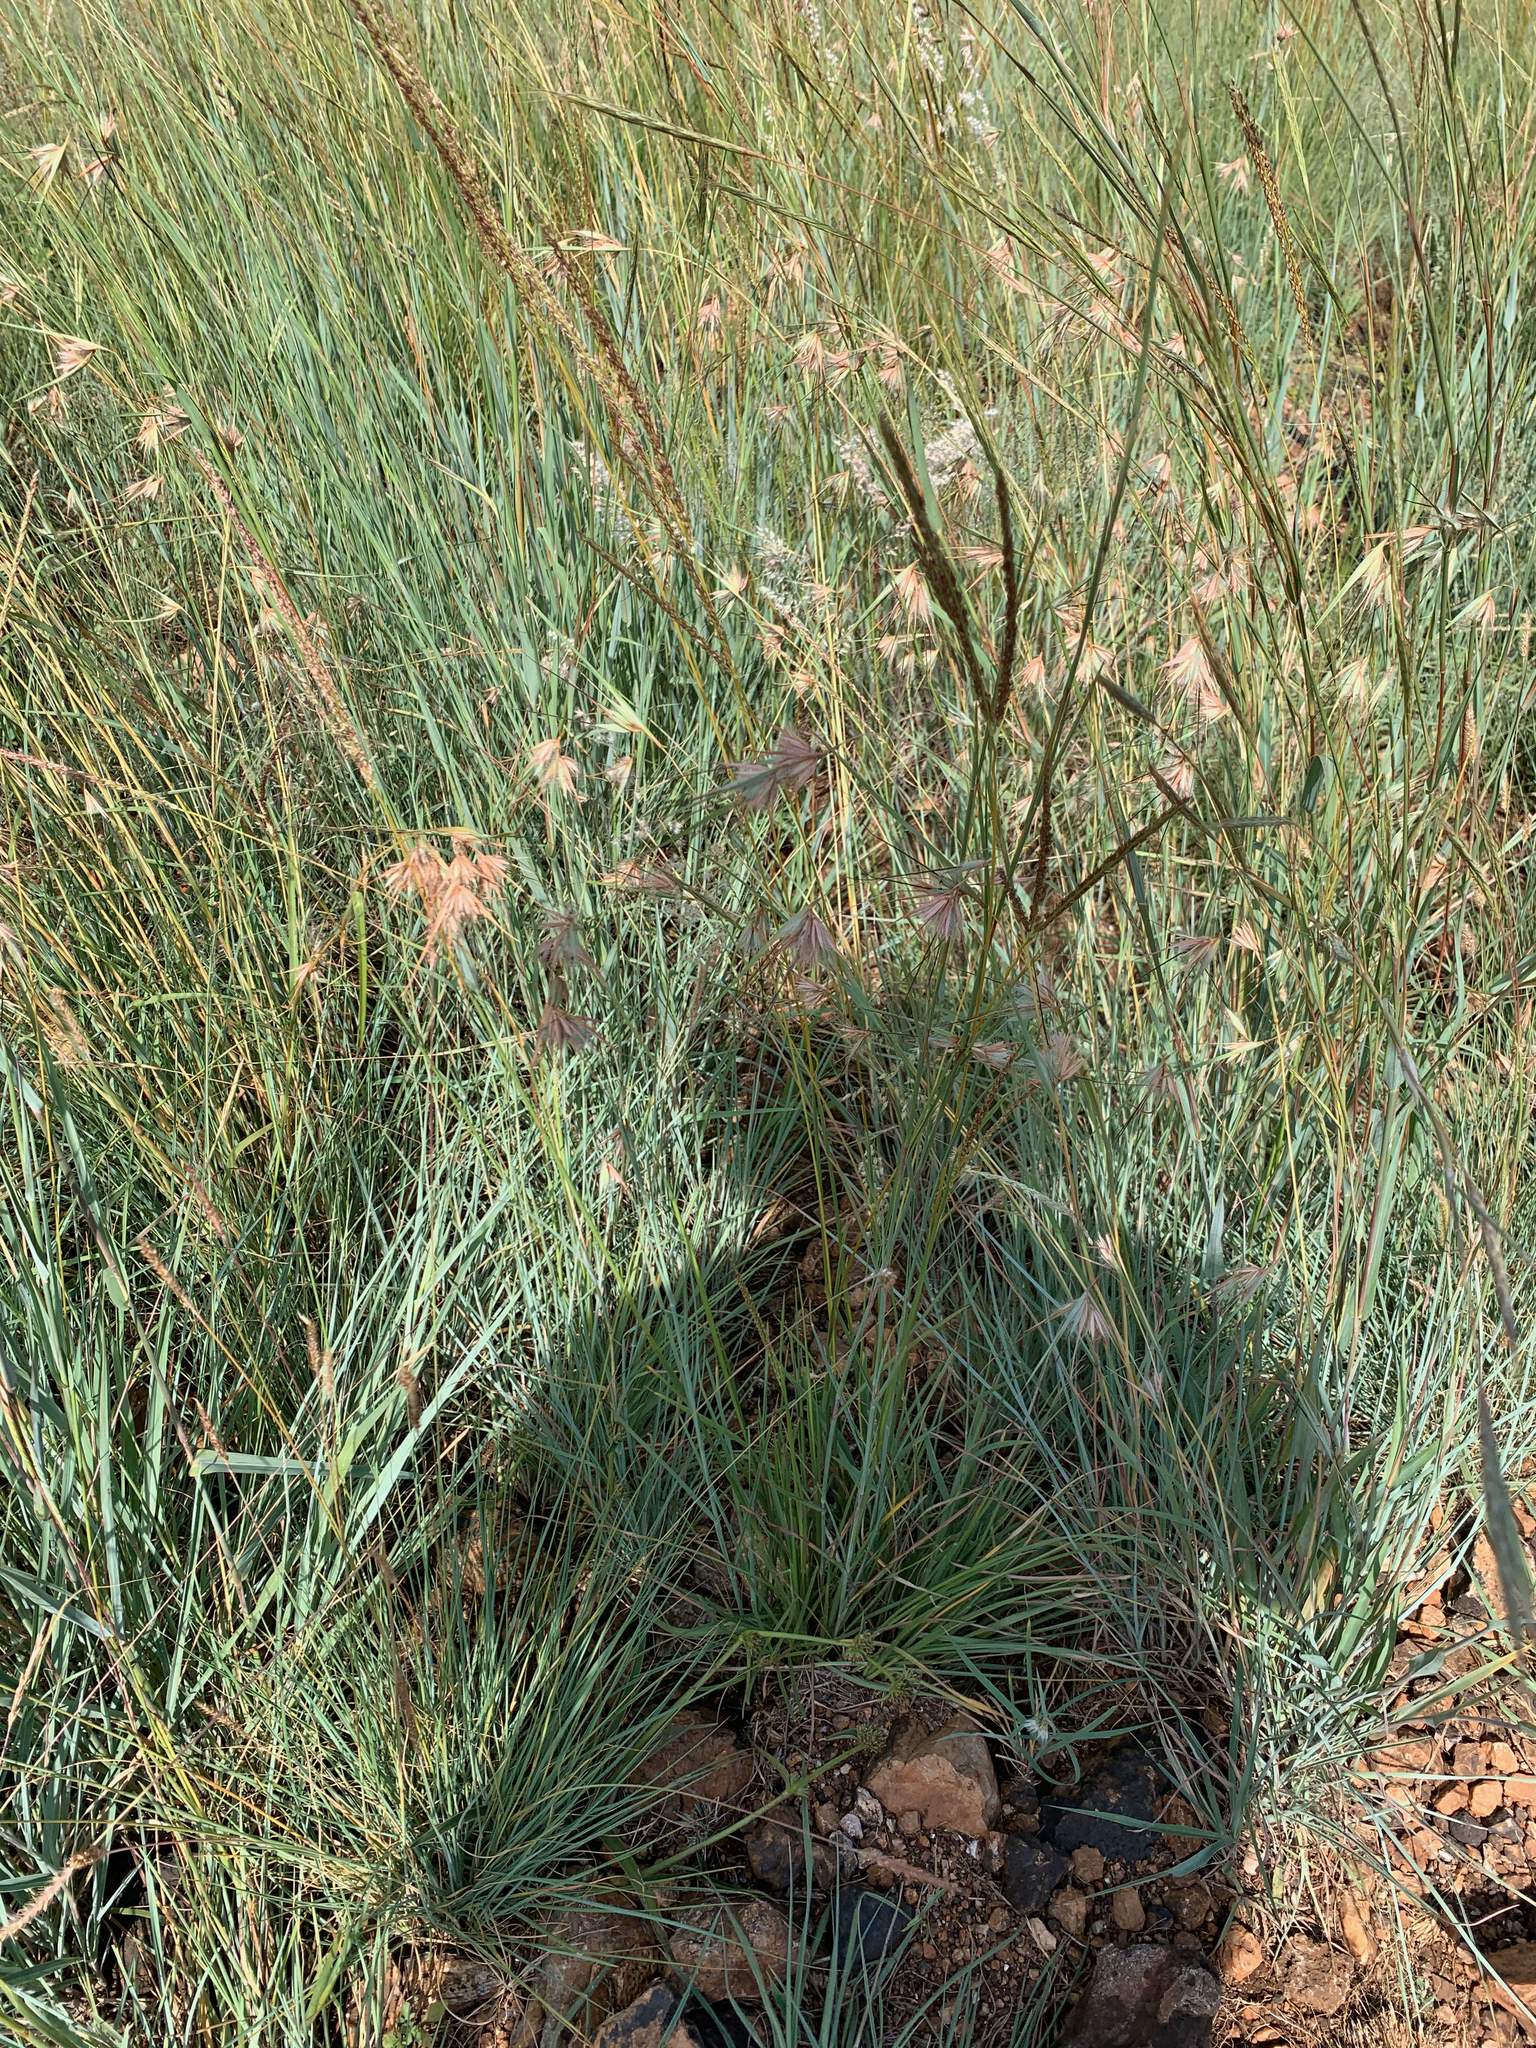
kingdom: Plantae
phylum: Tracheophyta
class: Liliopsida
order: Poales
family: Poaceae
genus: Themeda
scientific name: Themeda triandra
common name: Kangaroo grass
